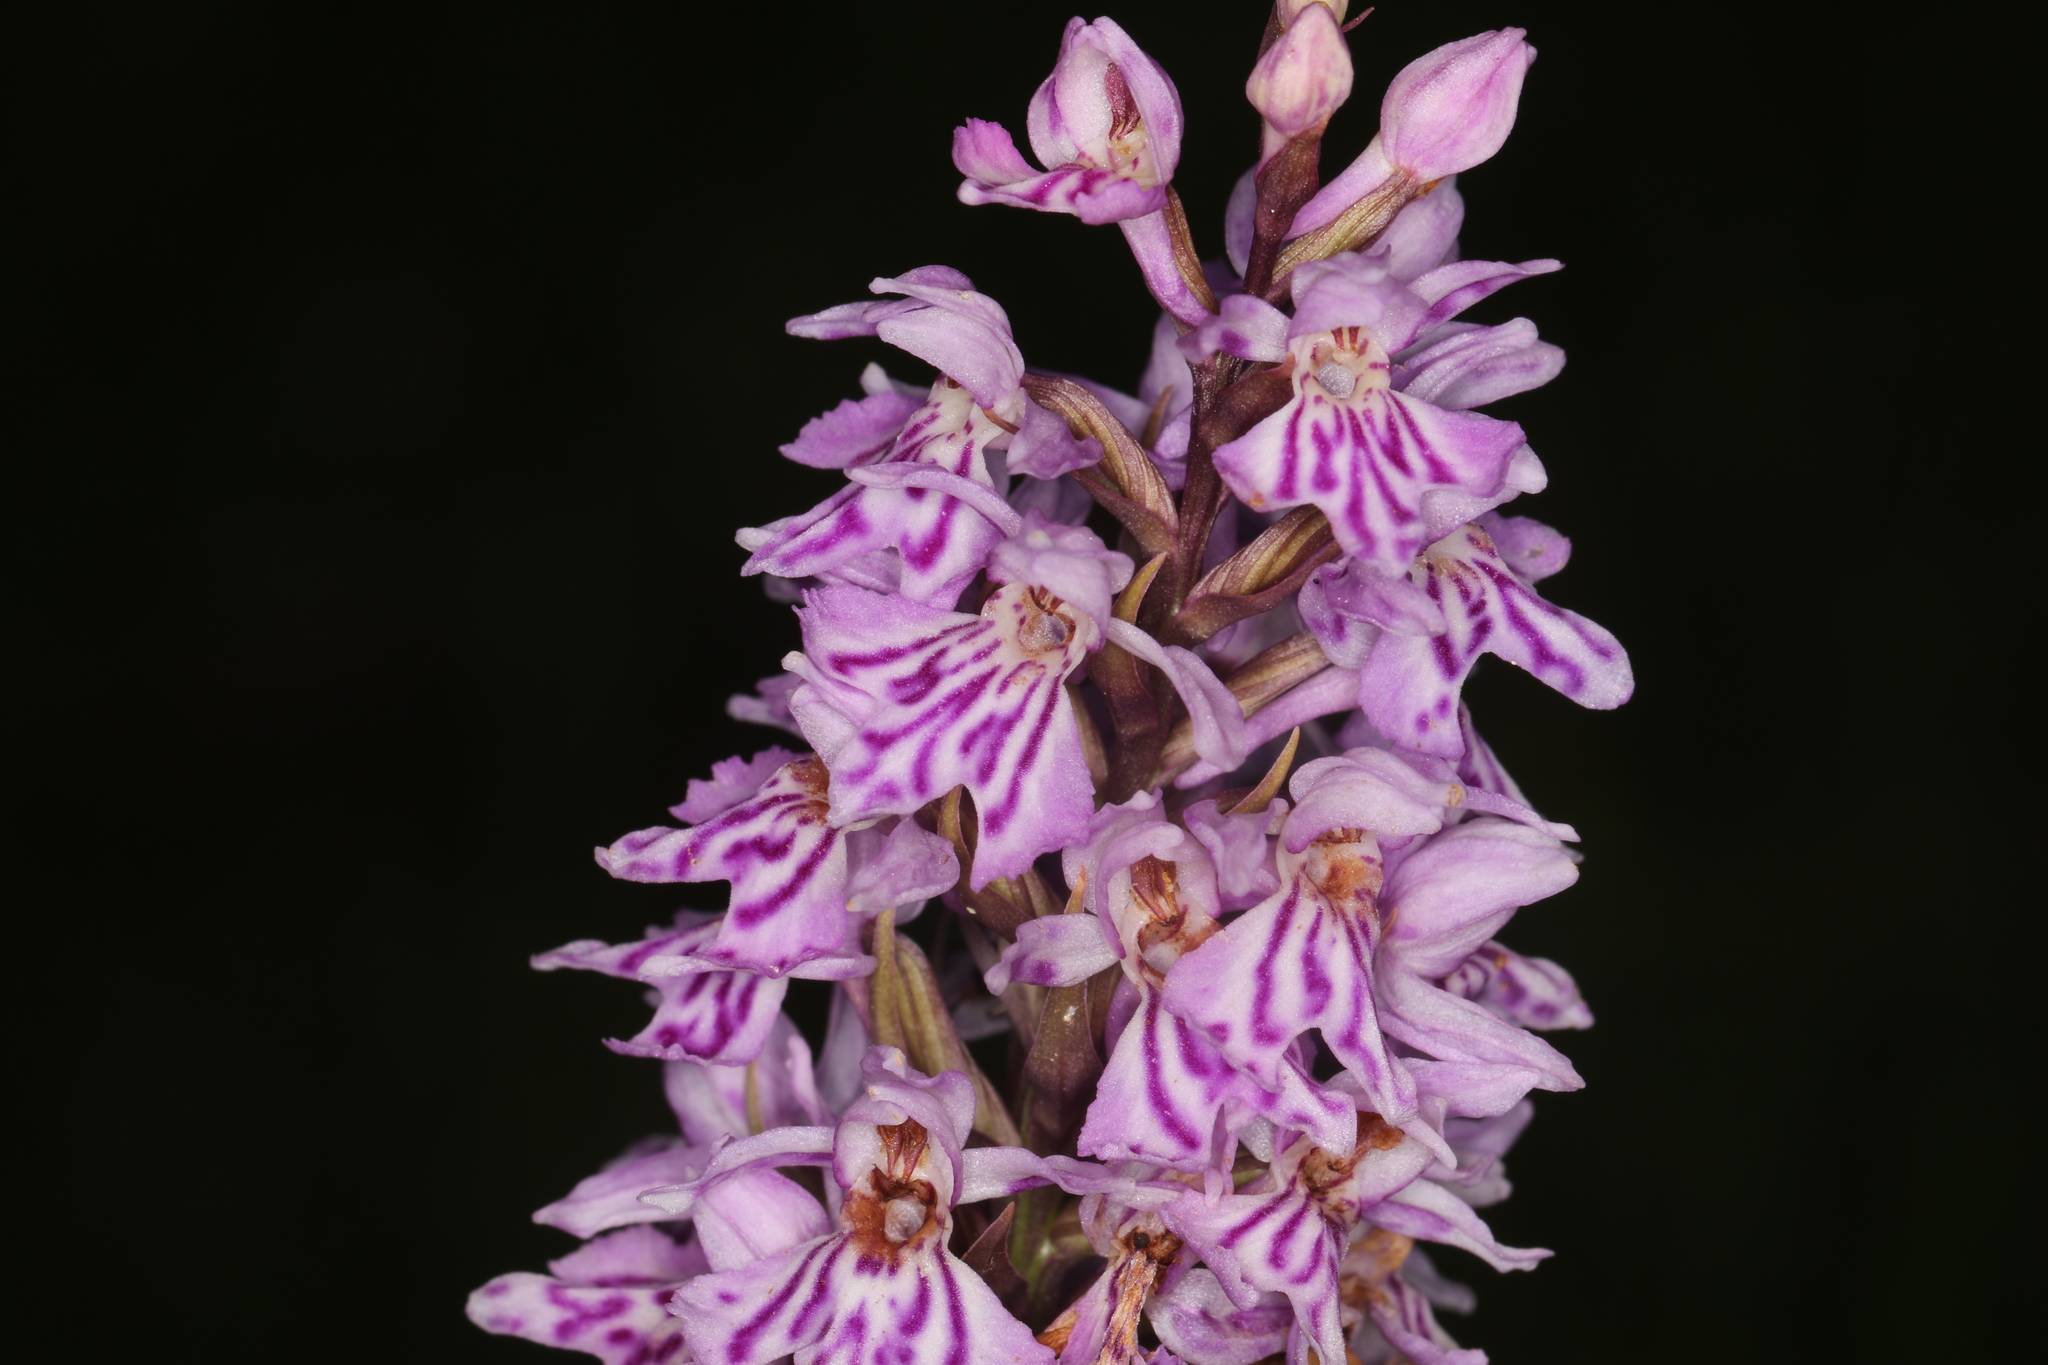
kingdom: Plantae
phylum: Tracheophyta
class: Liliopsida
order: Asparagales
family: Orchidaceae
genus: Dactylorhiza
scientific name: Dactylorhiza maculata
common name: Heath spotted-orchid
